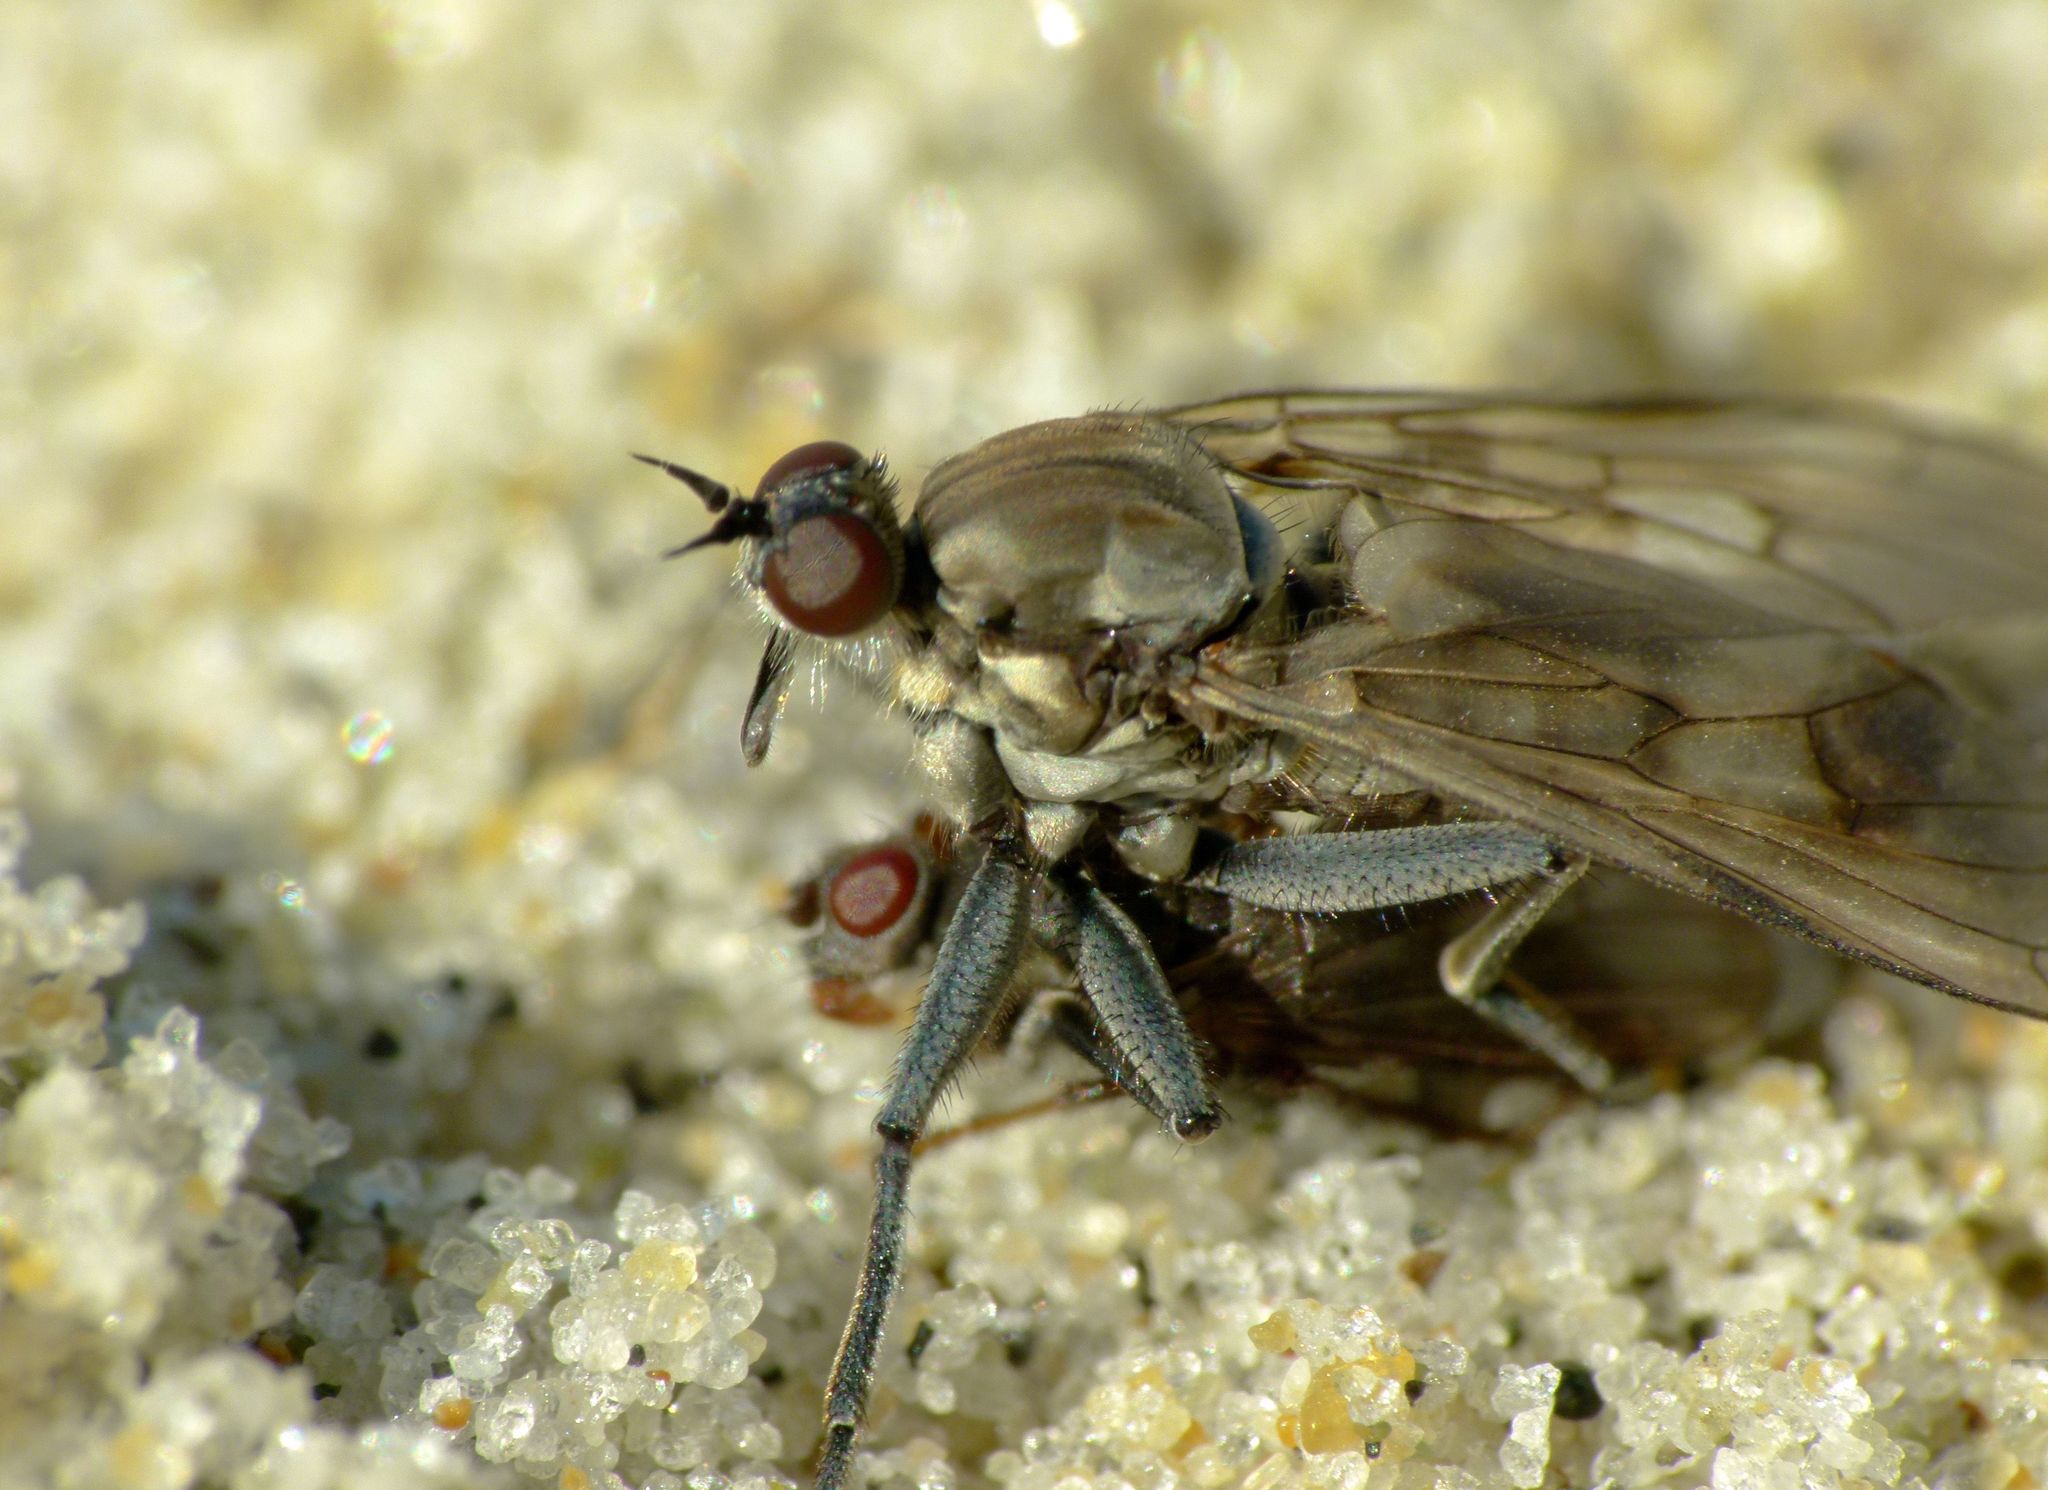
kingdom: Animalia
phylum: Arthropoda
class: Insecta
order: Diptera
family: Empididae
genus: Thinempis
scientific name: Thinempis otakouensis
